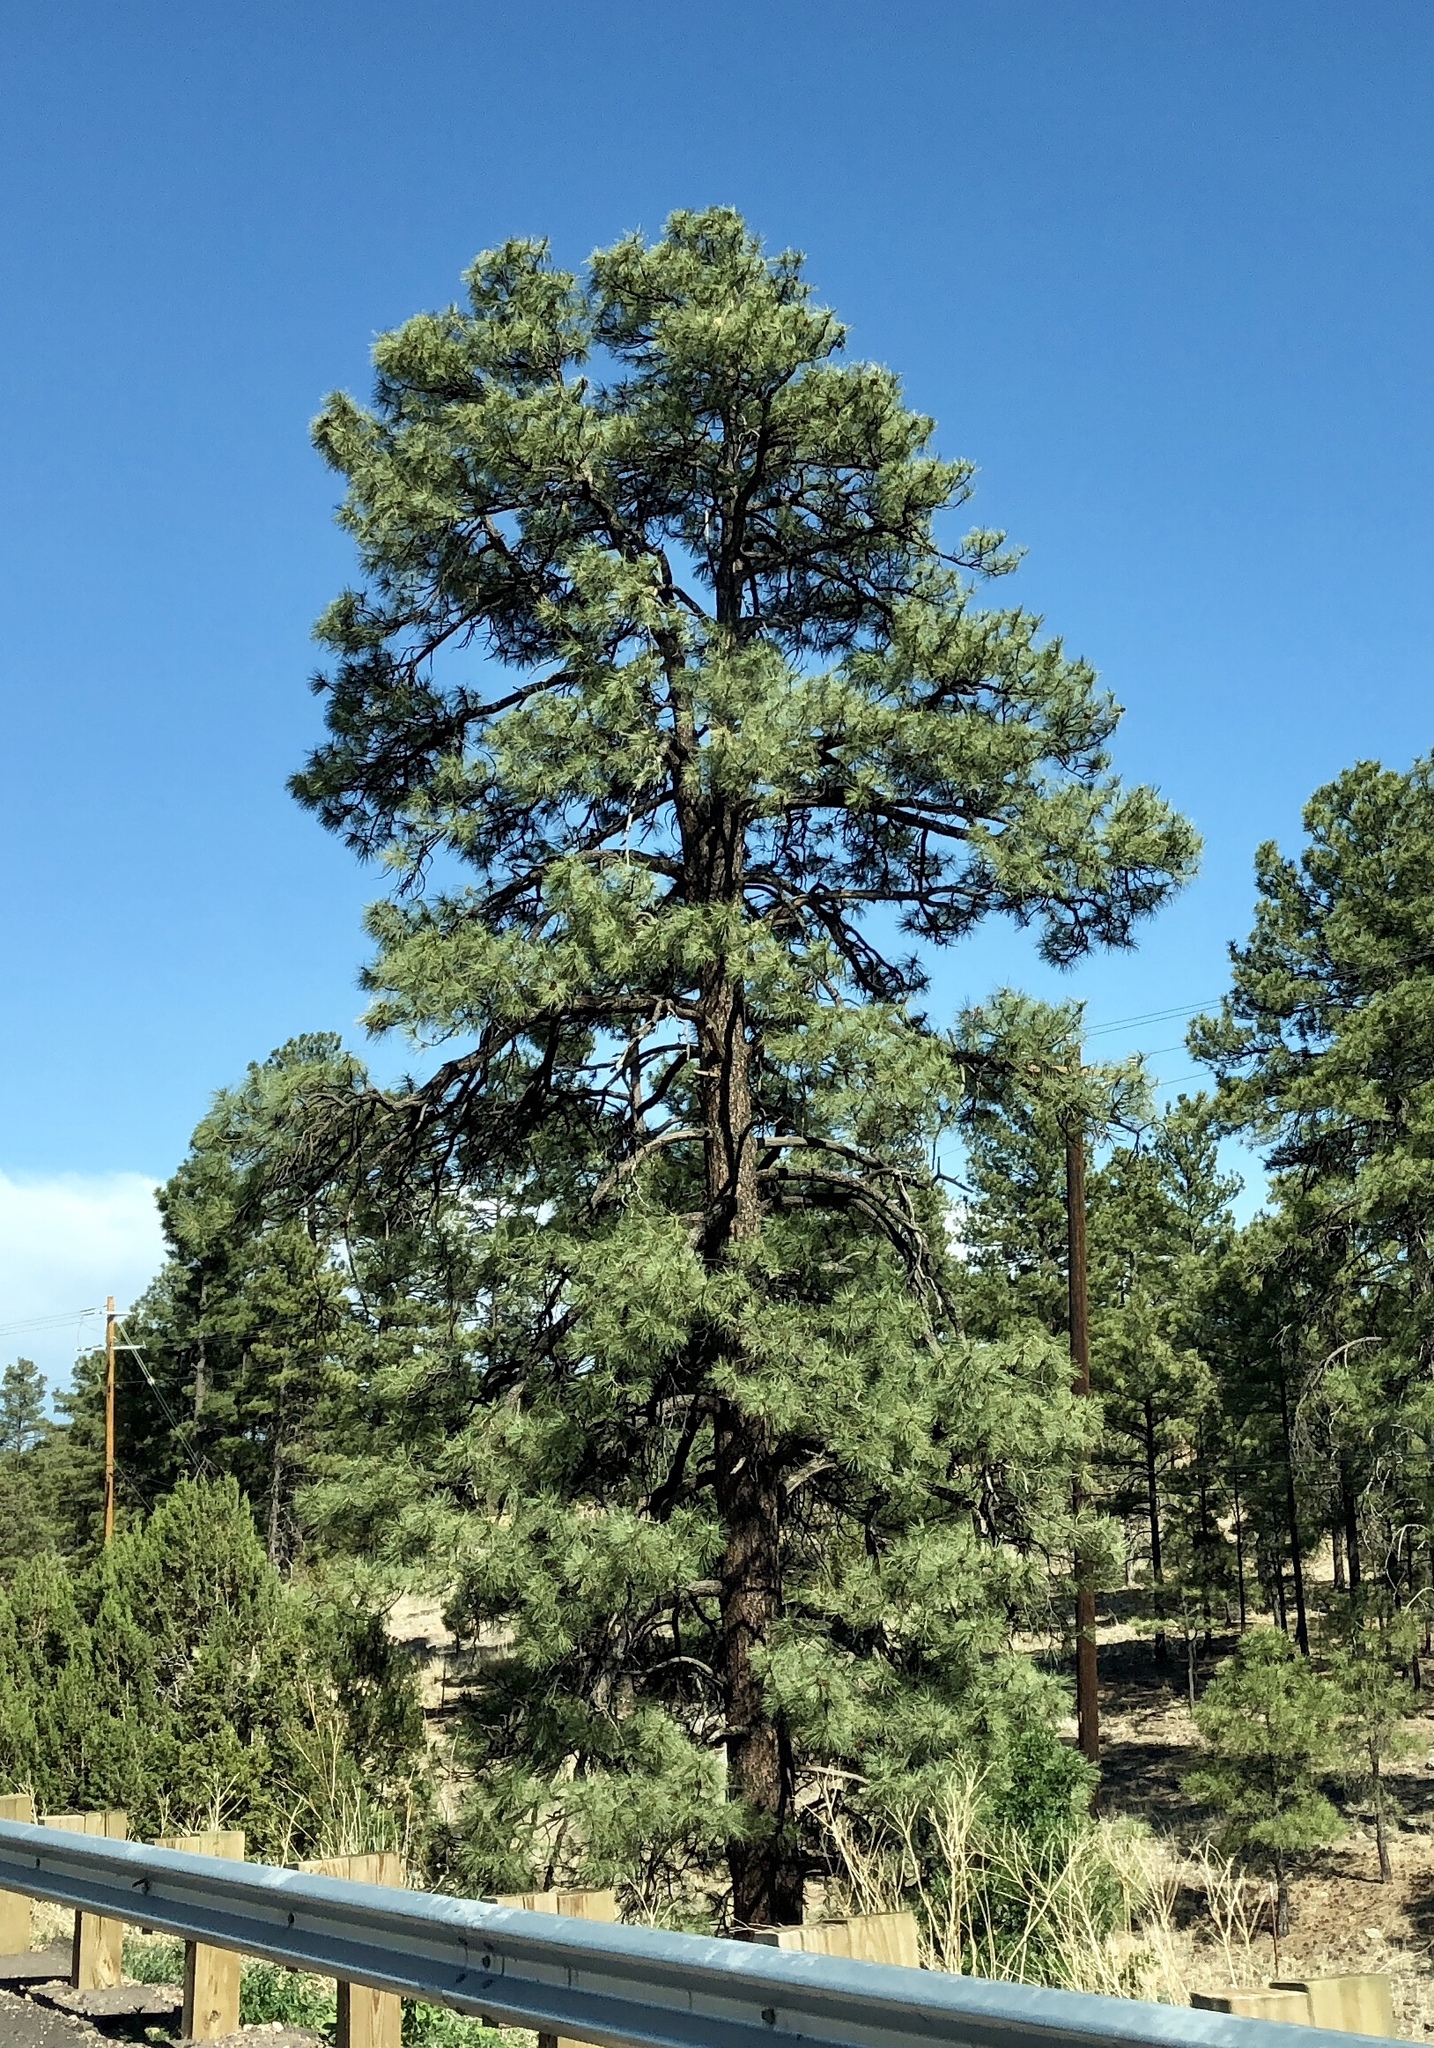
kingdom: Plantae
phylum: Tracheophyta
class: Pinopsida
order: Pinales
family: Pinaceae
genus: Pinus
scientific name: Pinus ponderosa
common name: Western yellow-pine
